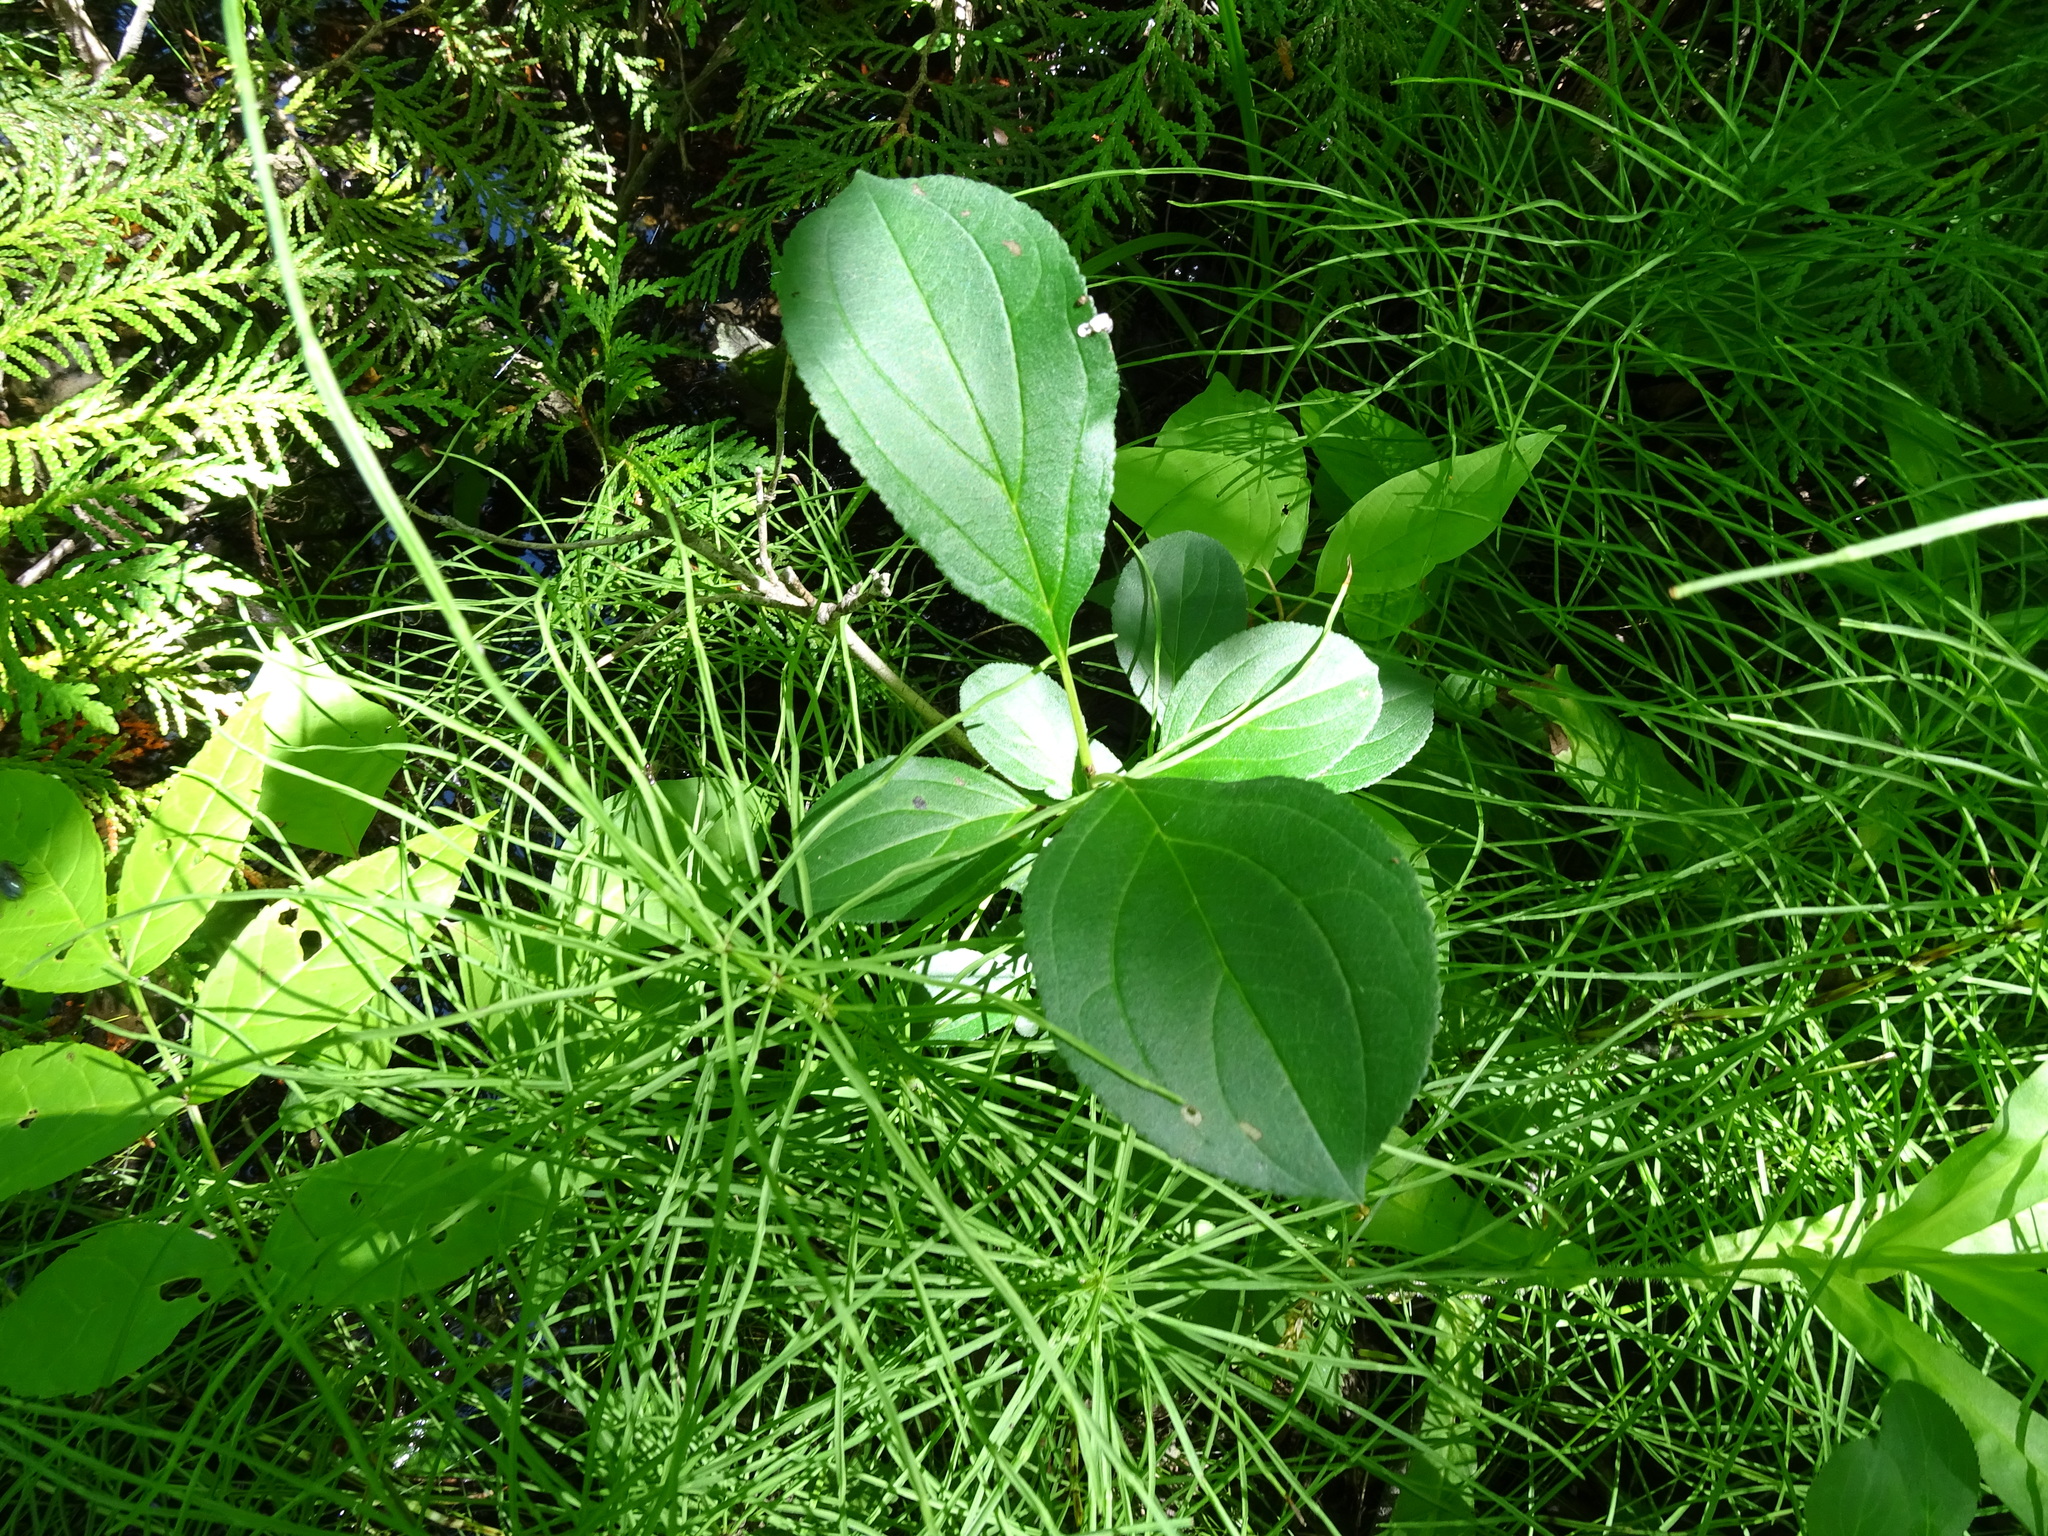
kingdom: Plantae
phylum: Tracheophyta
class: Magnoliopsida
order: Rosales
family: Rhamnaceae
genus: Rhamnus
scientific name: Rhamnus cathartica
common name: Common buckthorn
